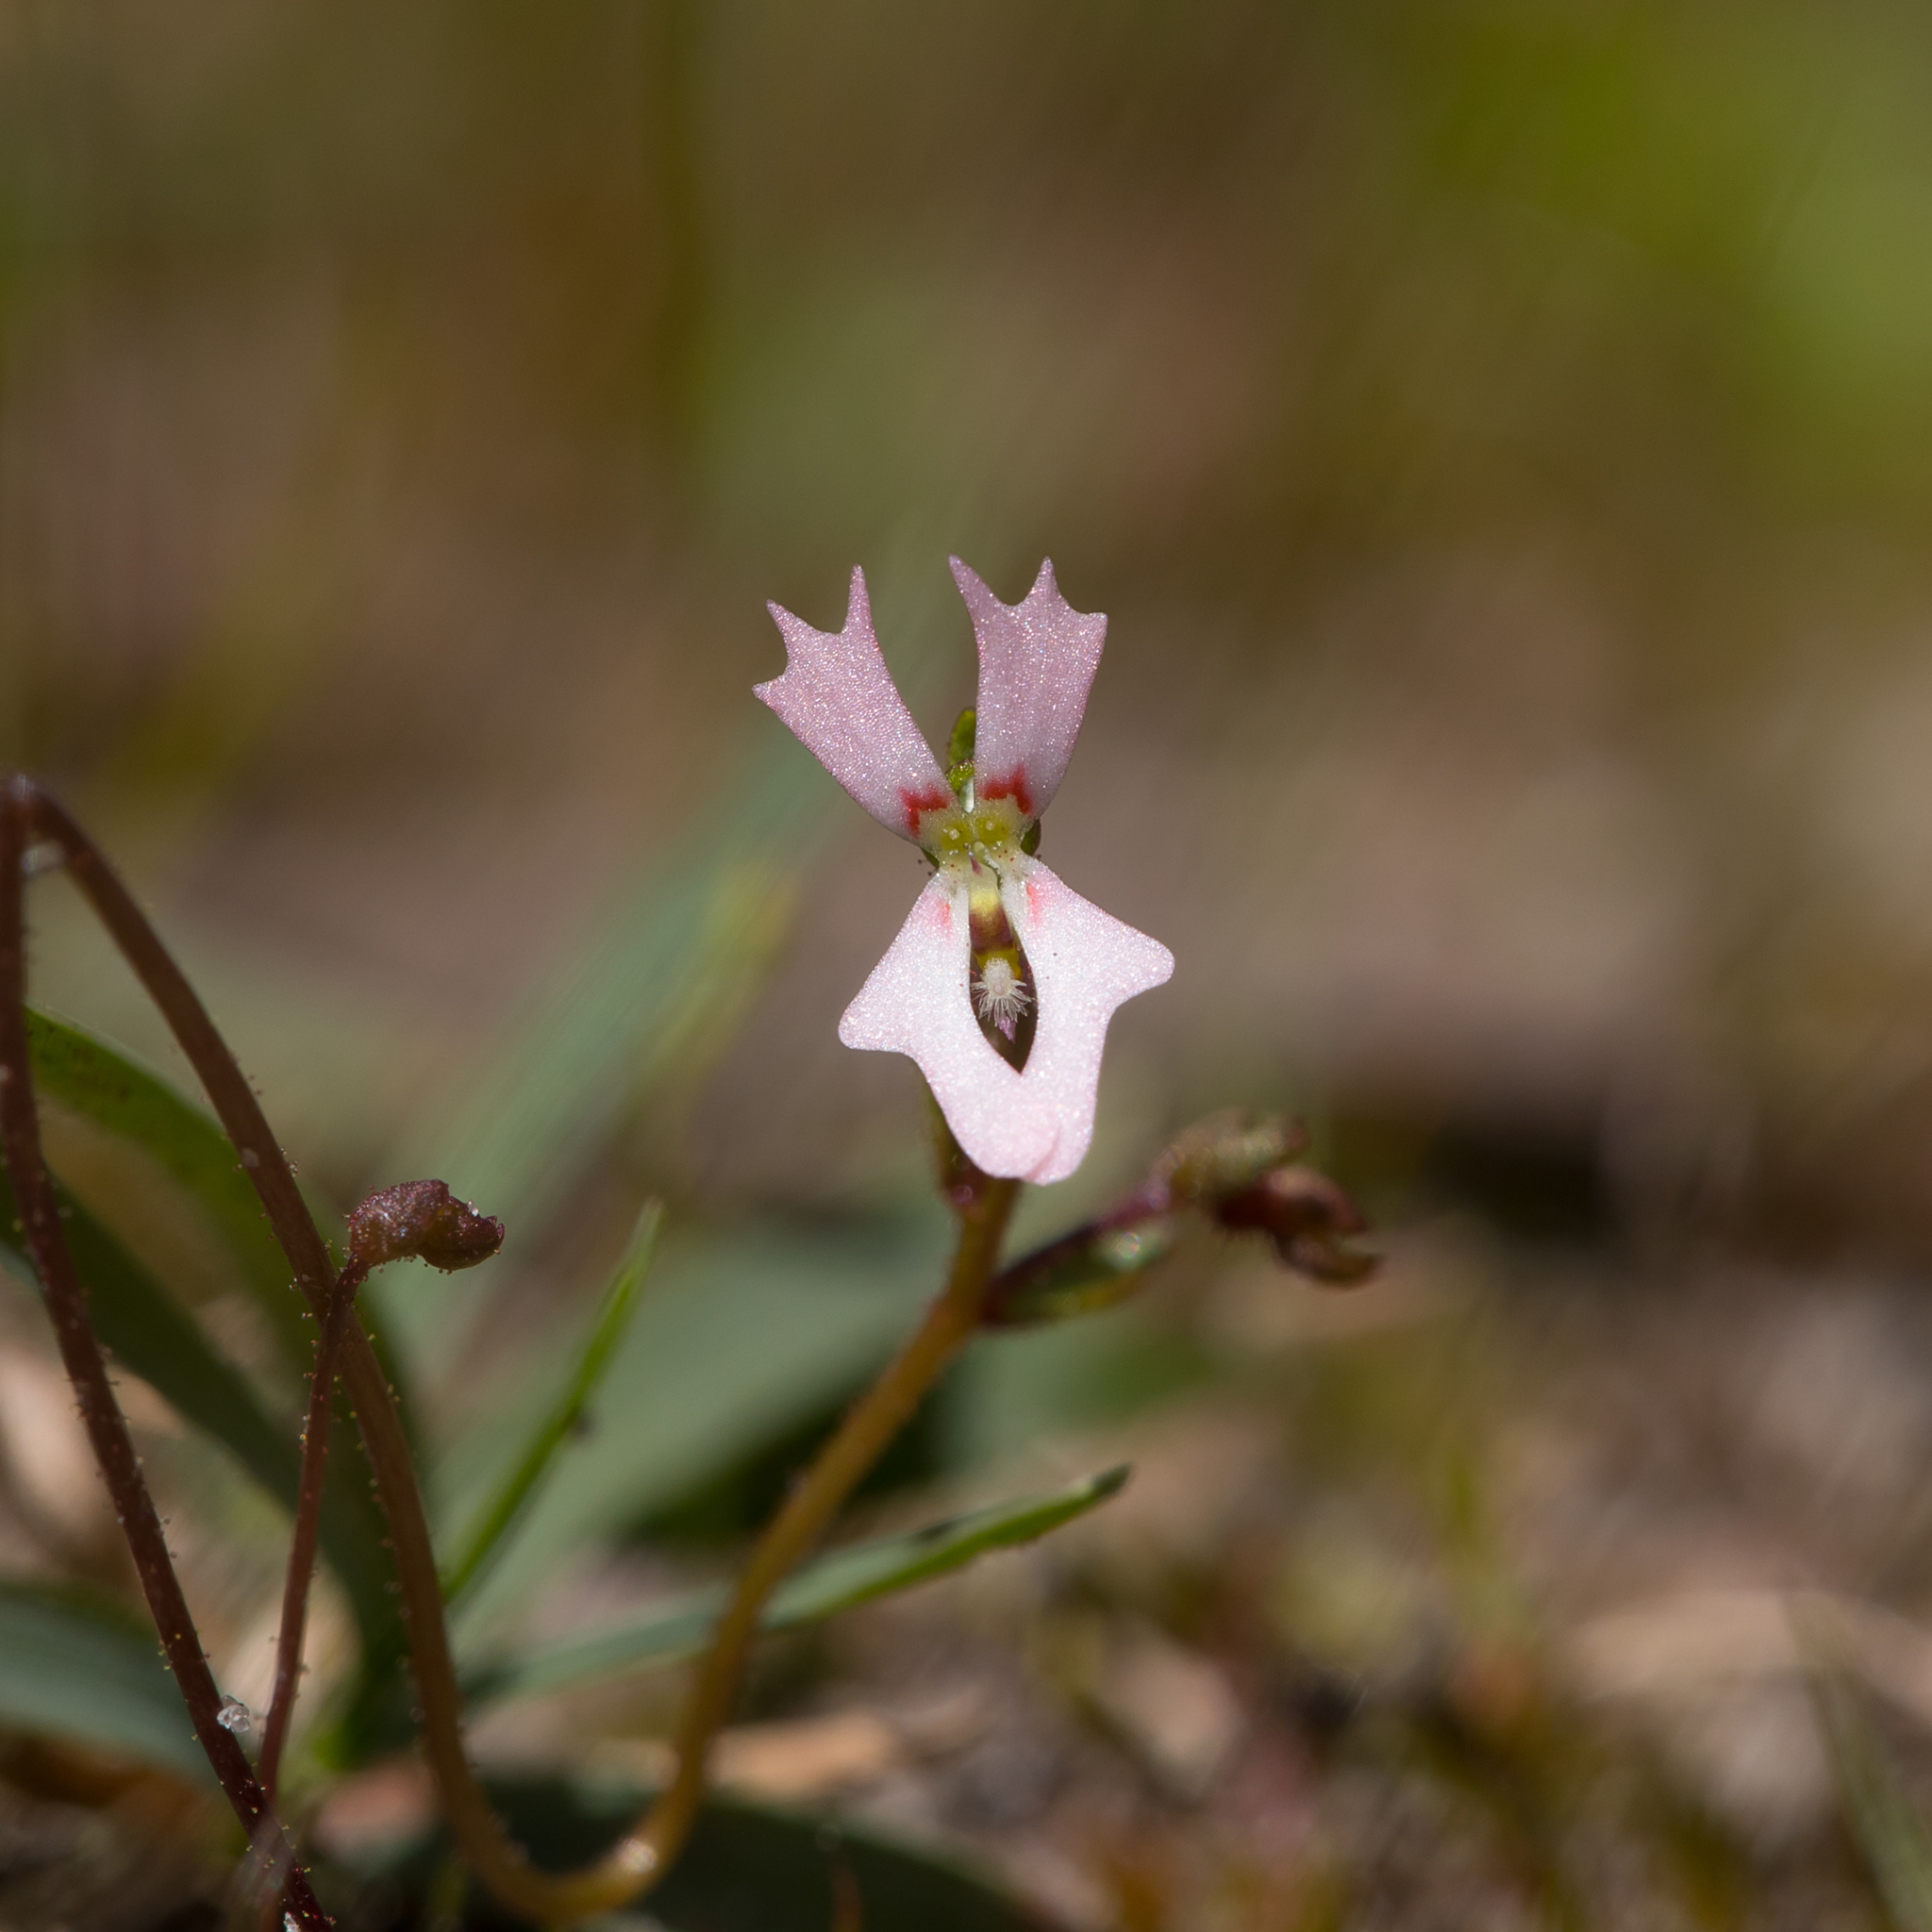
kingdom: Plantae
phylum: Tracheophyta
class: Magnoliopsida
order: Asterales
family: Stylidiaceae
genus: Stylidium
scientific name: Stylidium calcaratum
